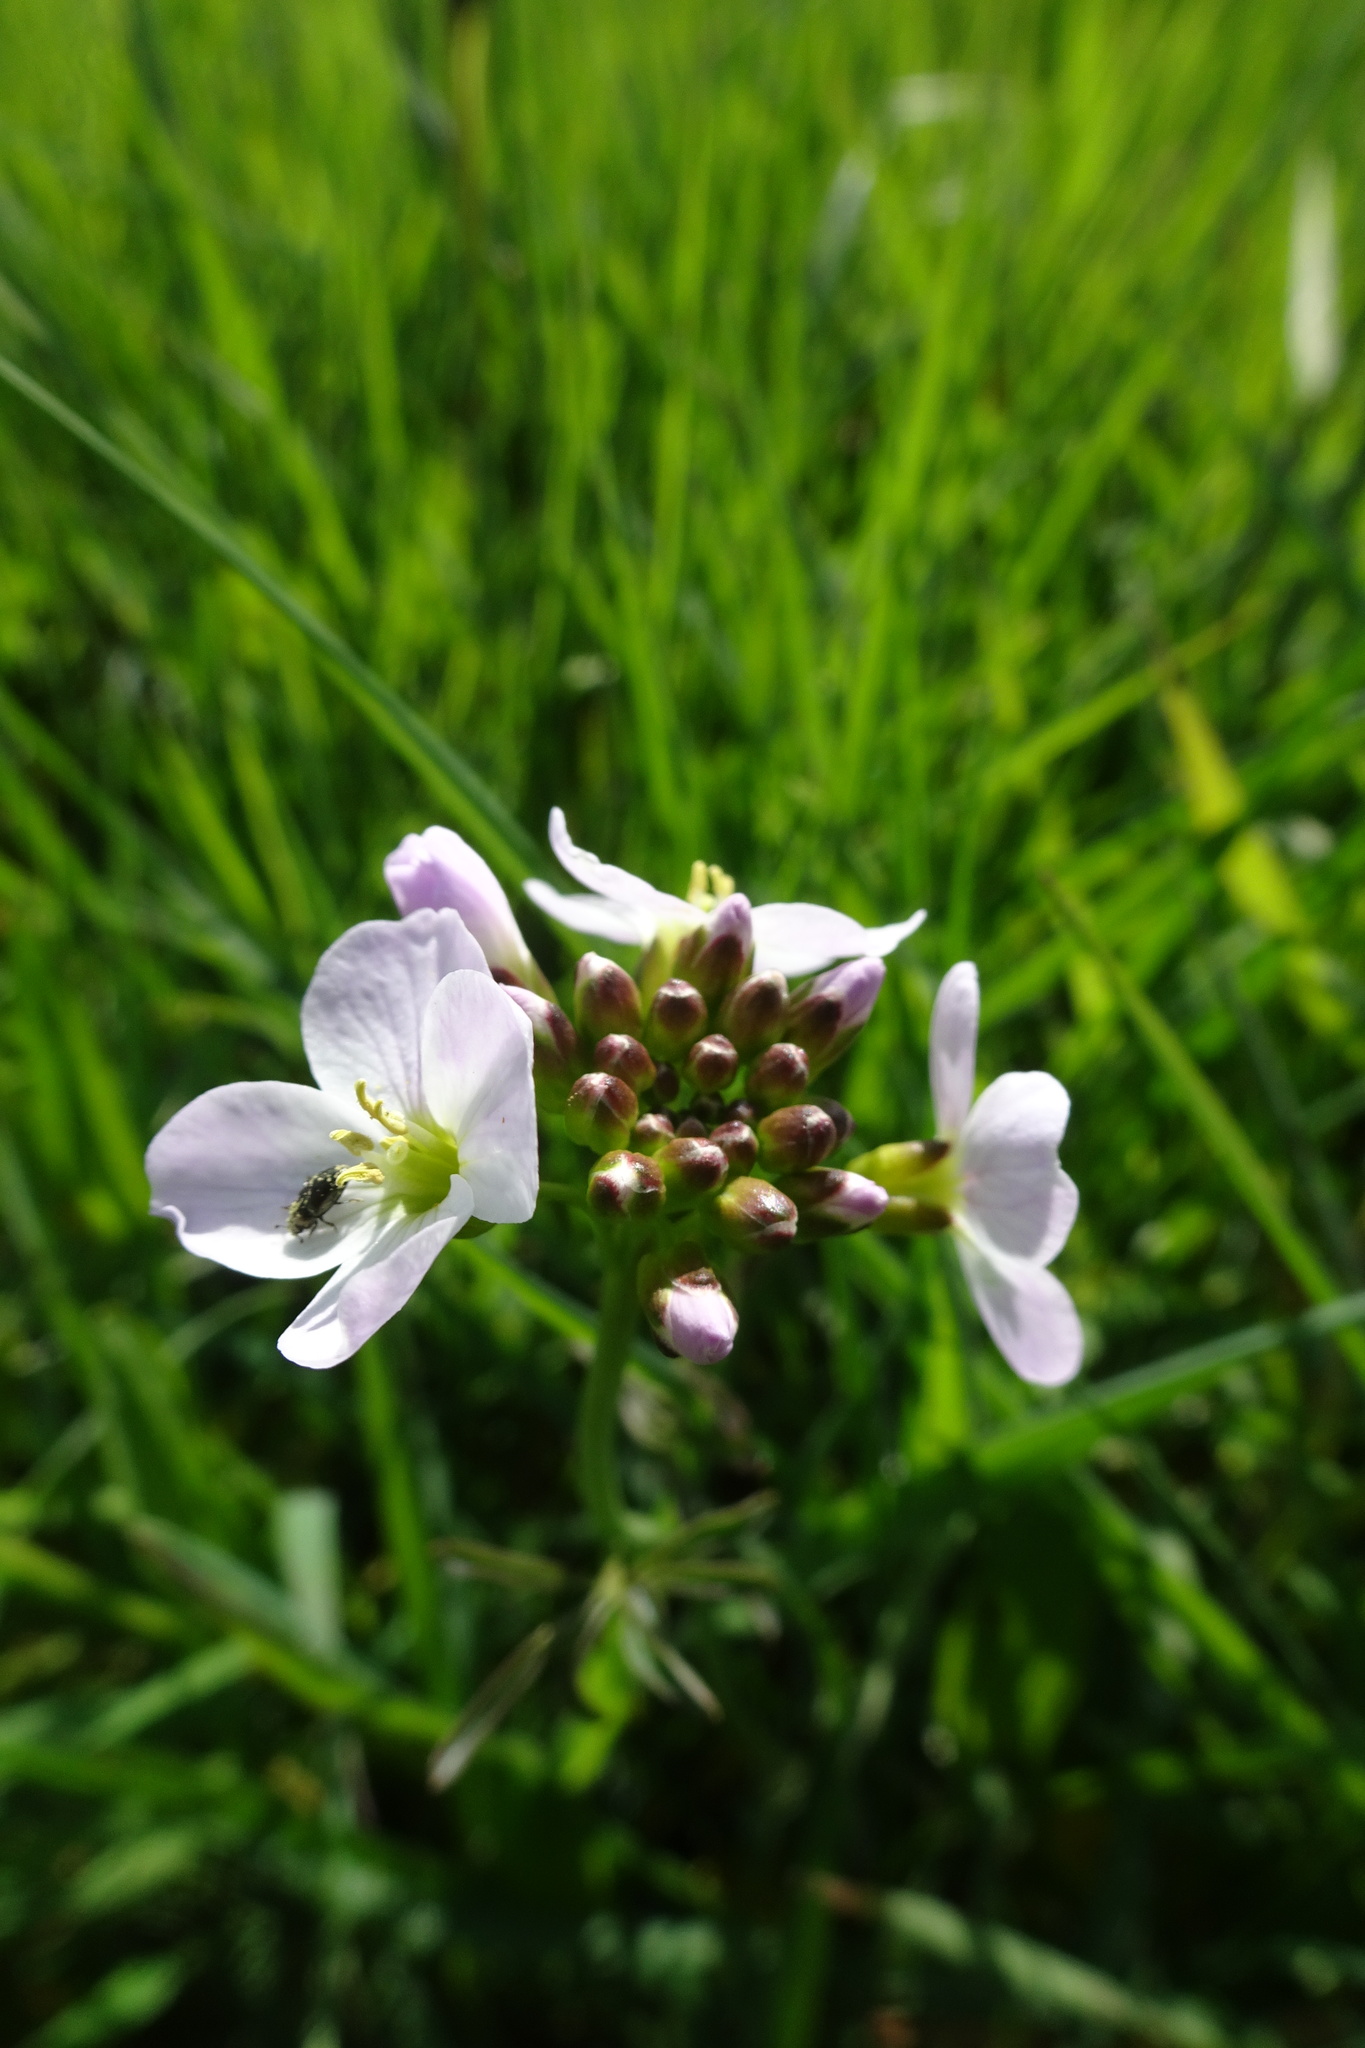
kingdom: Plantae
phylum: Tracheophyta
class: Magnoliopsida
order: Brassicales
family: Brassicaceae
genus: Cardamine
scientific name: Cardamine pratensis
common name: Cuckoo flower
